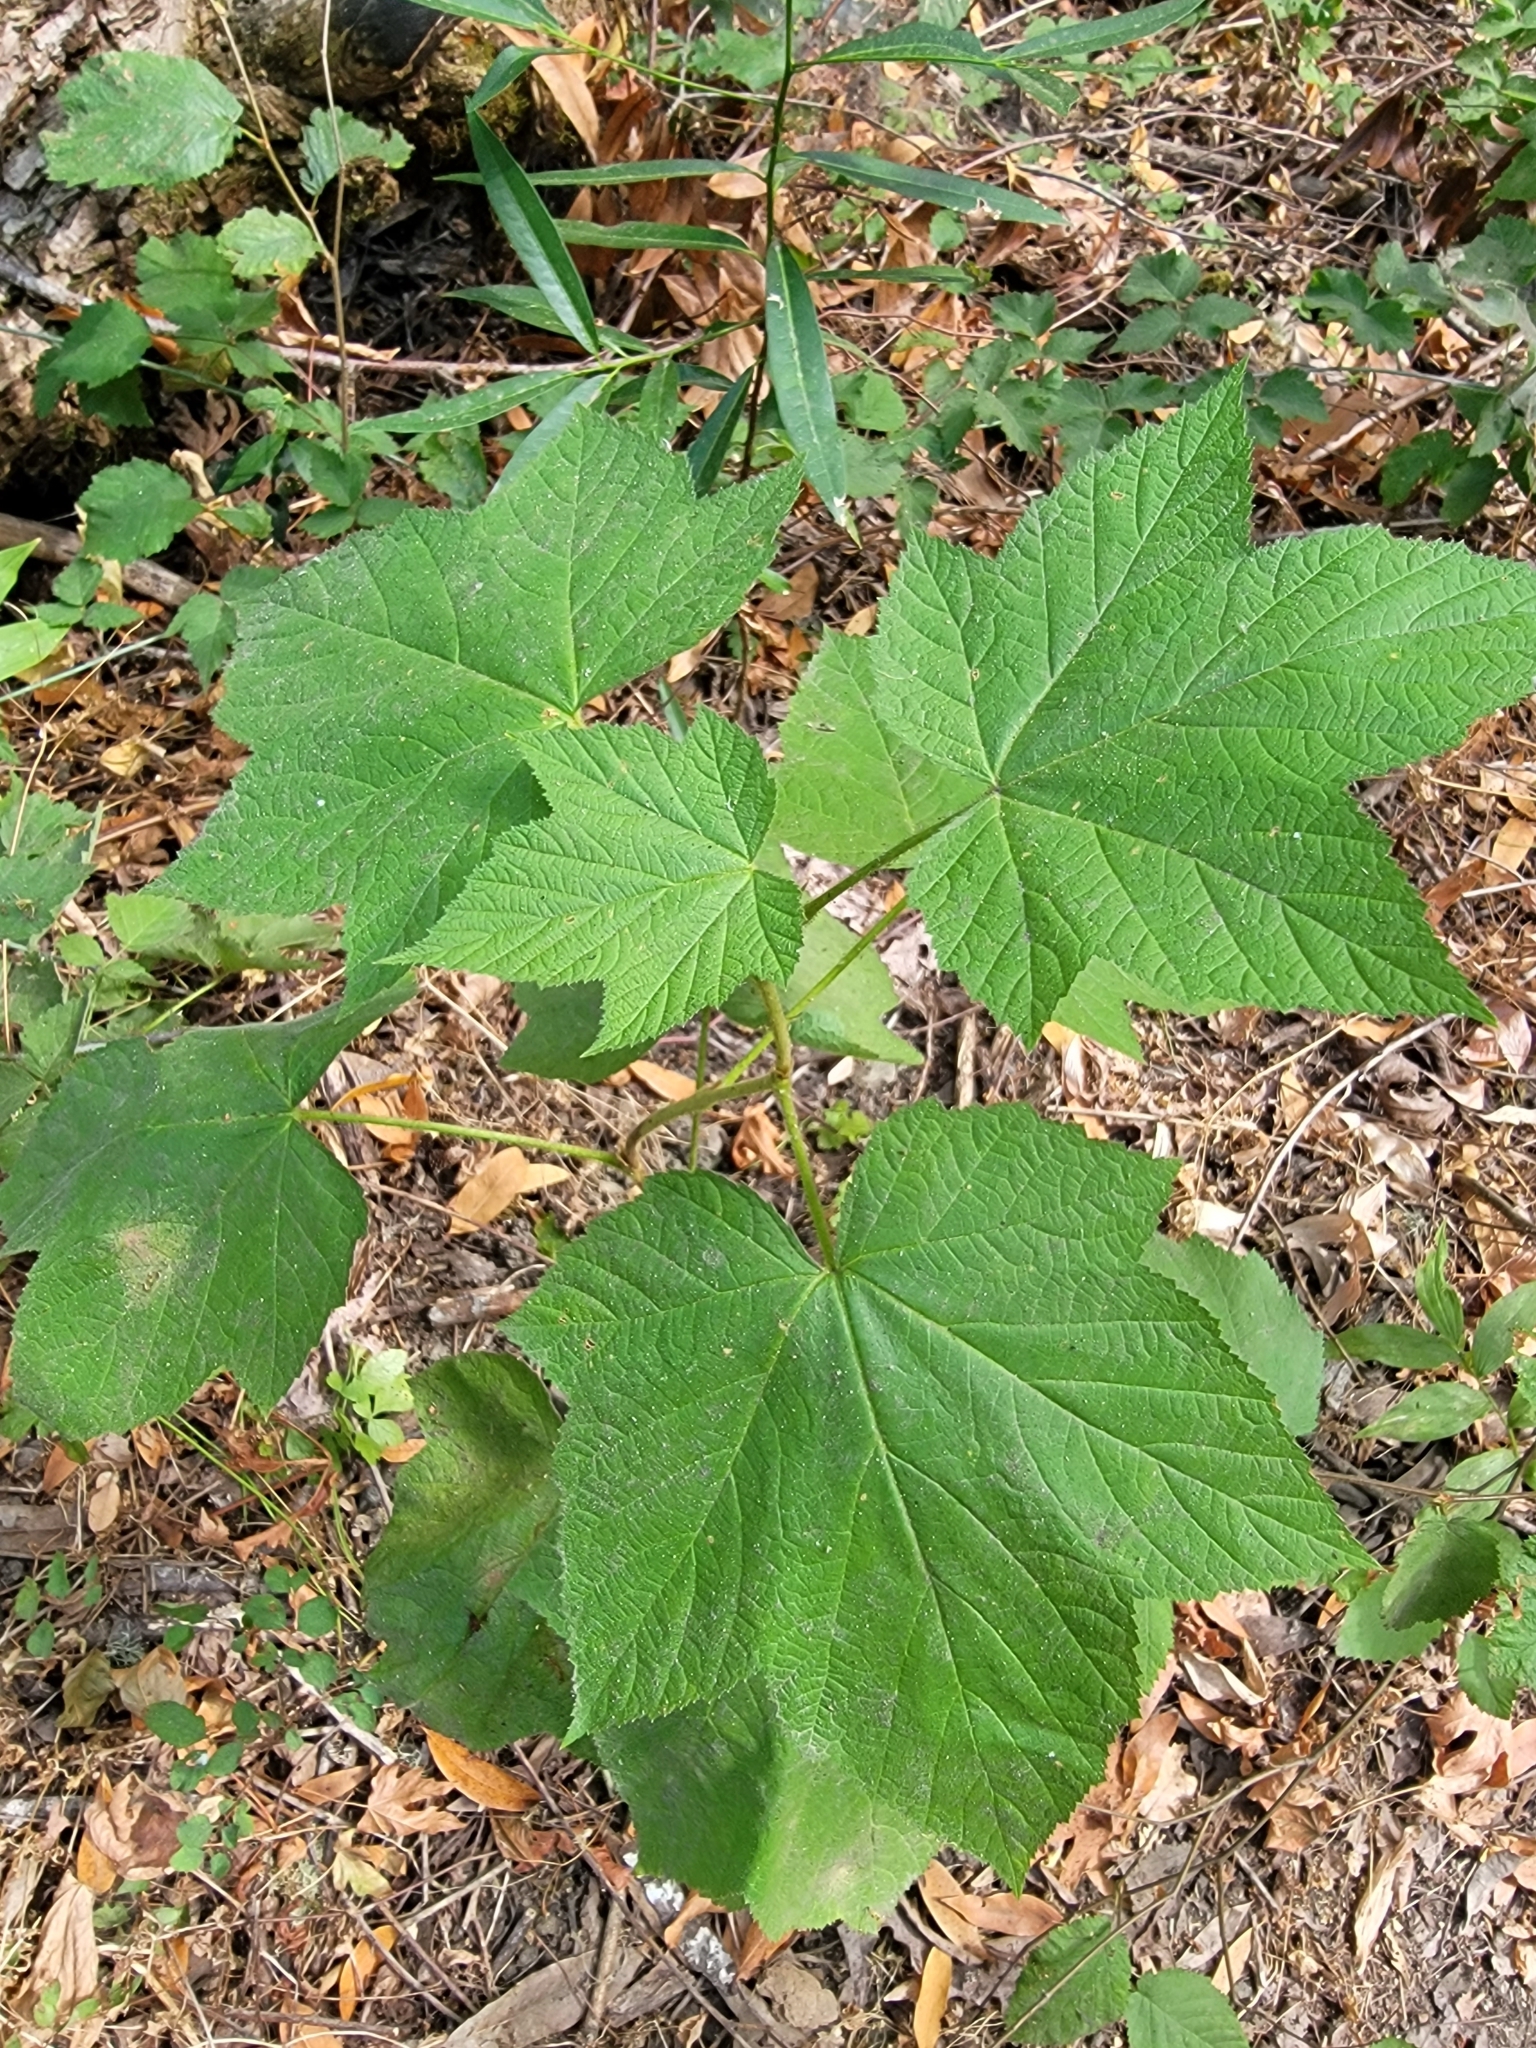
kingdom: Plantae
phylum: Tracheophyta
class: Magnoliopsida
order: Rosales
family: Rosaceae
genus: Rubus
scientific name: Rubus parviflorus
